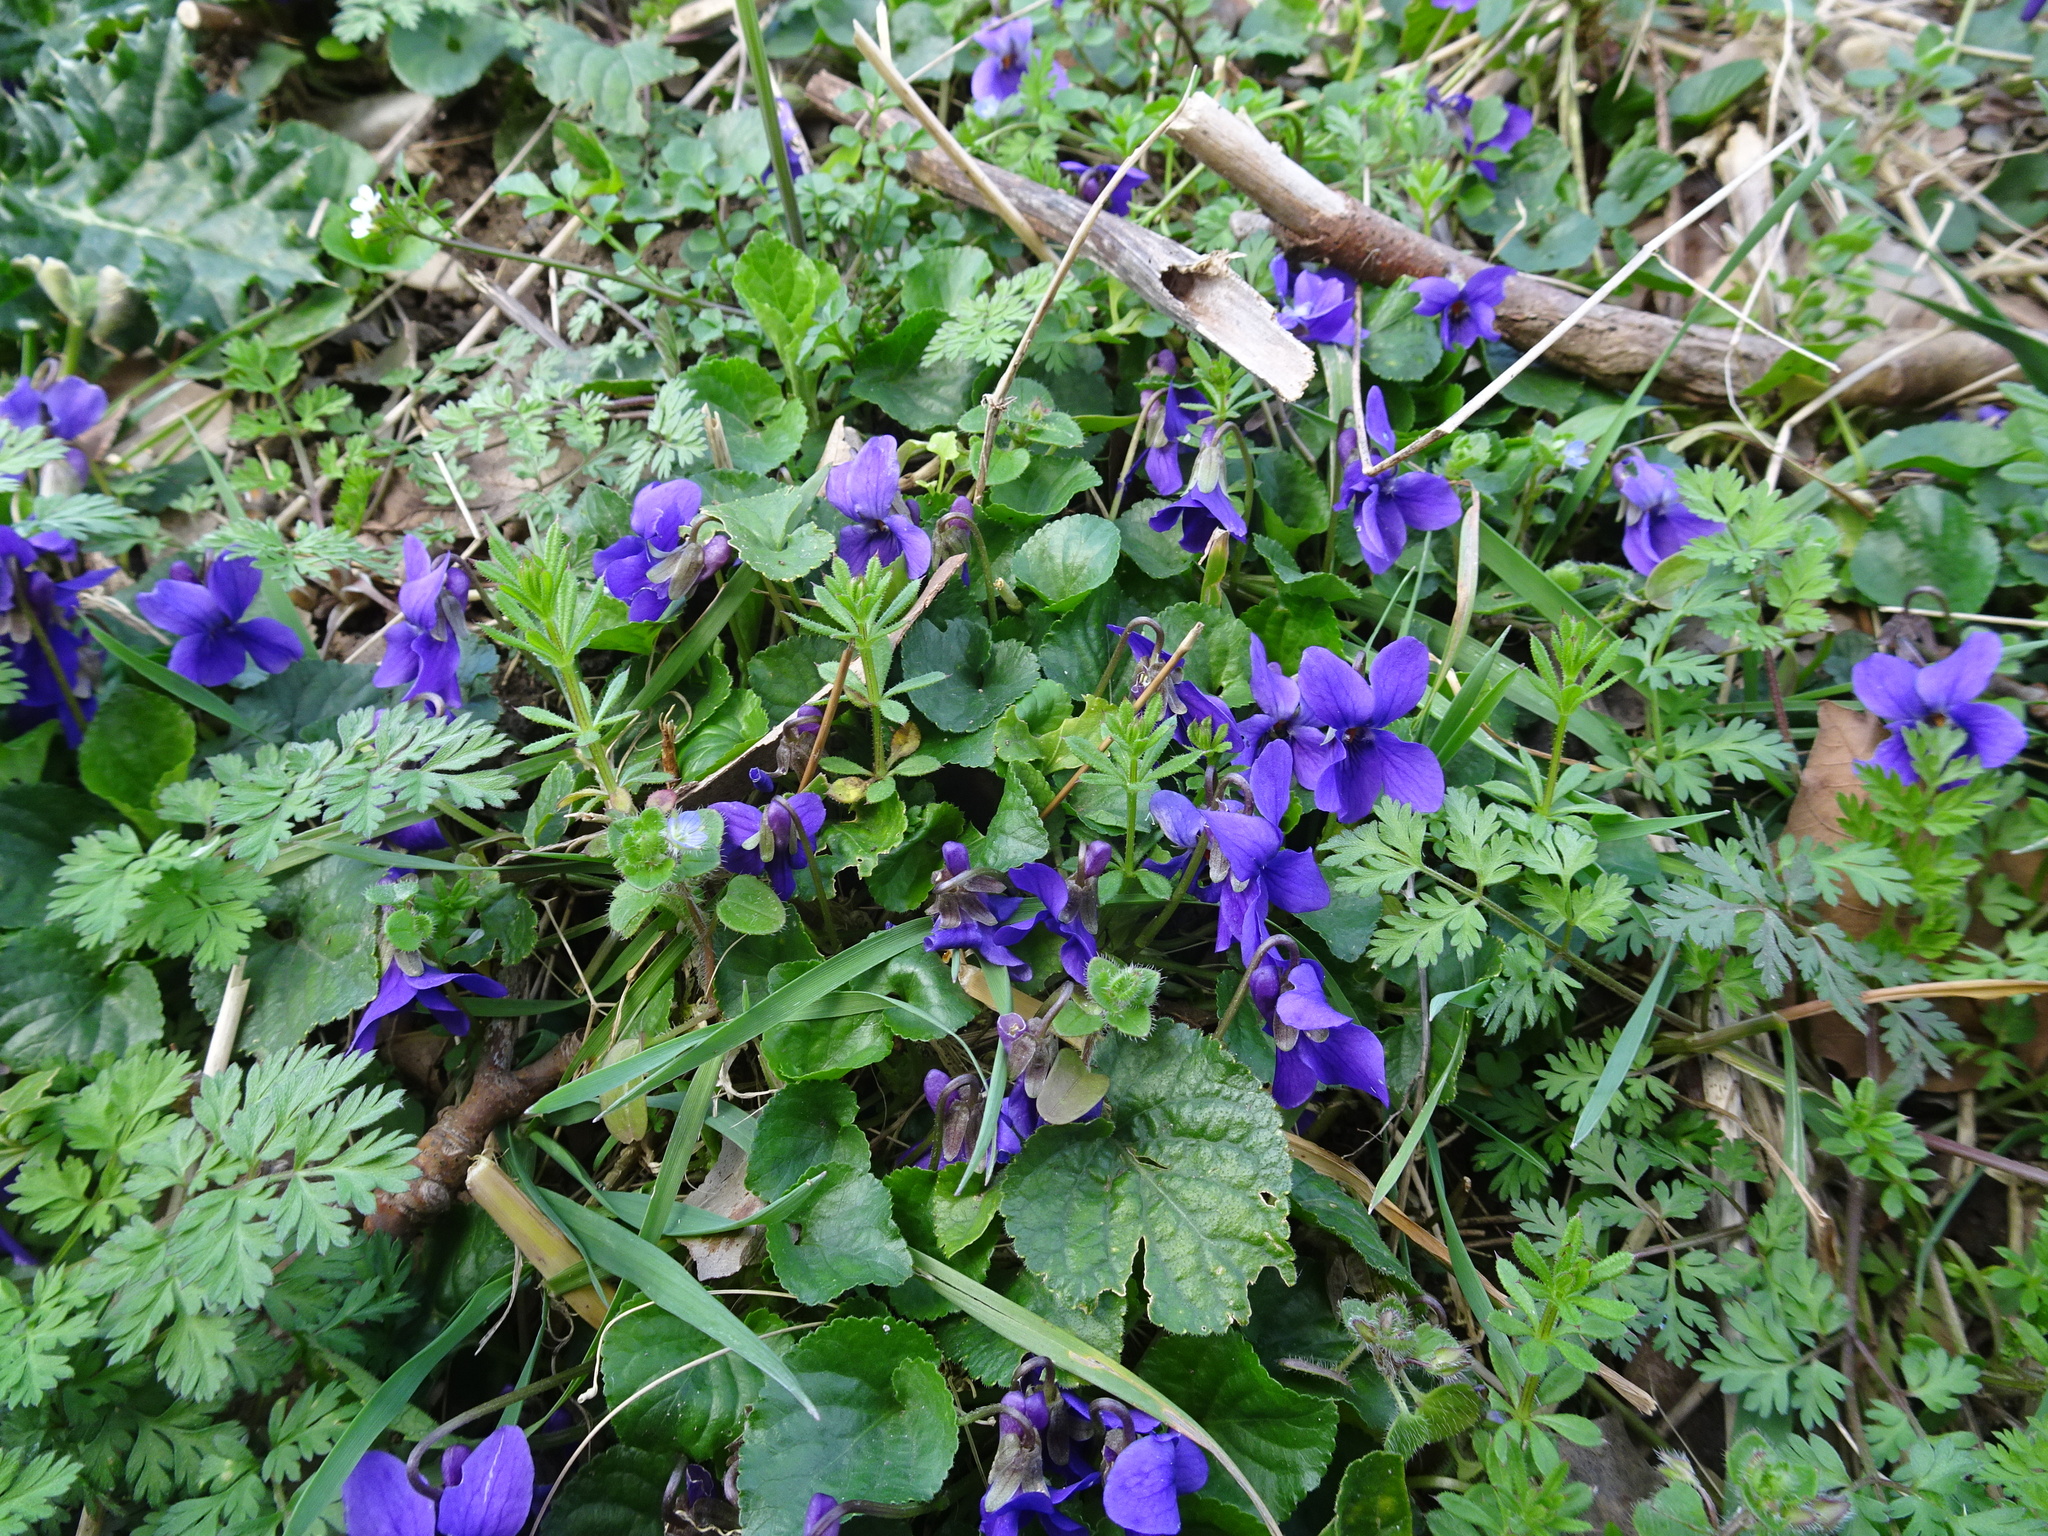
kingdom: Plantae
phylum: Tracheophyta
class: Magnoliopsida
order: Malpighiales
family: Violaceae
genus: Viola
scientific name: Viola odorata
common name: Sweet violet
